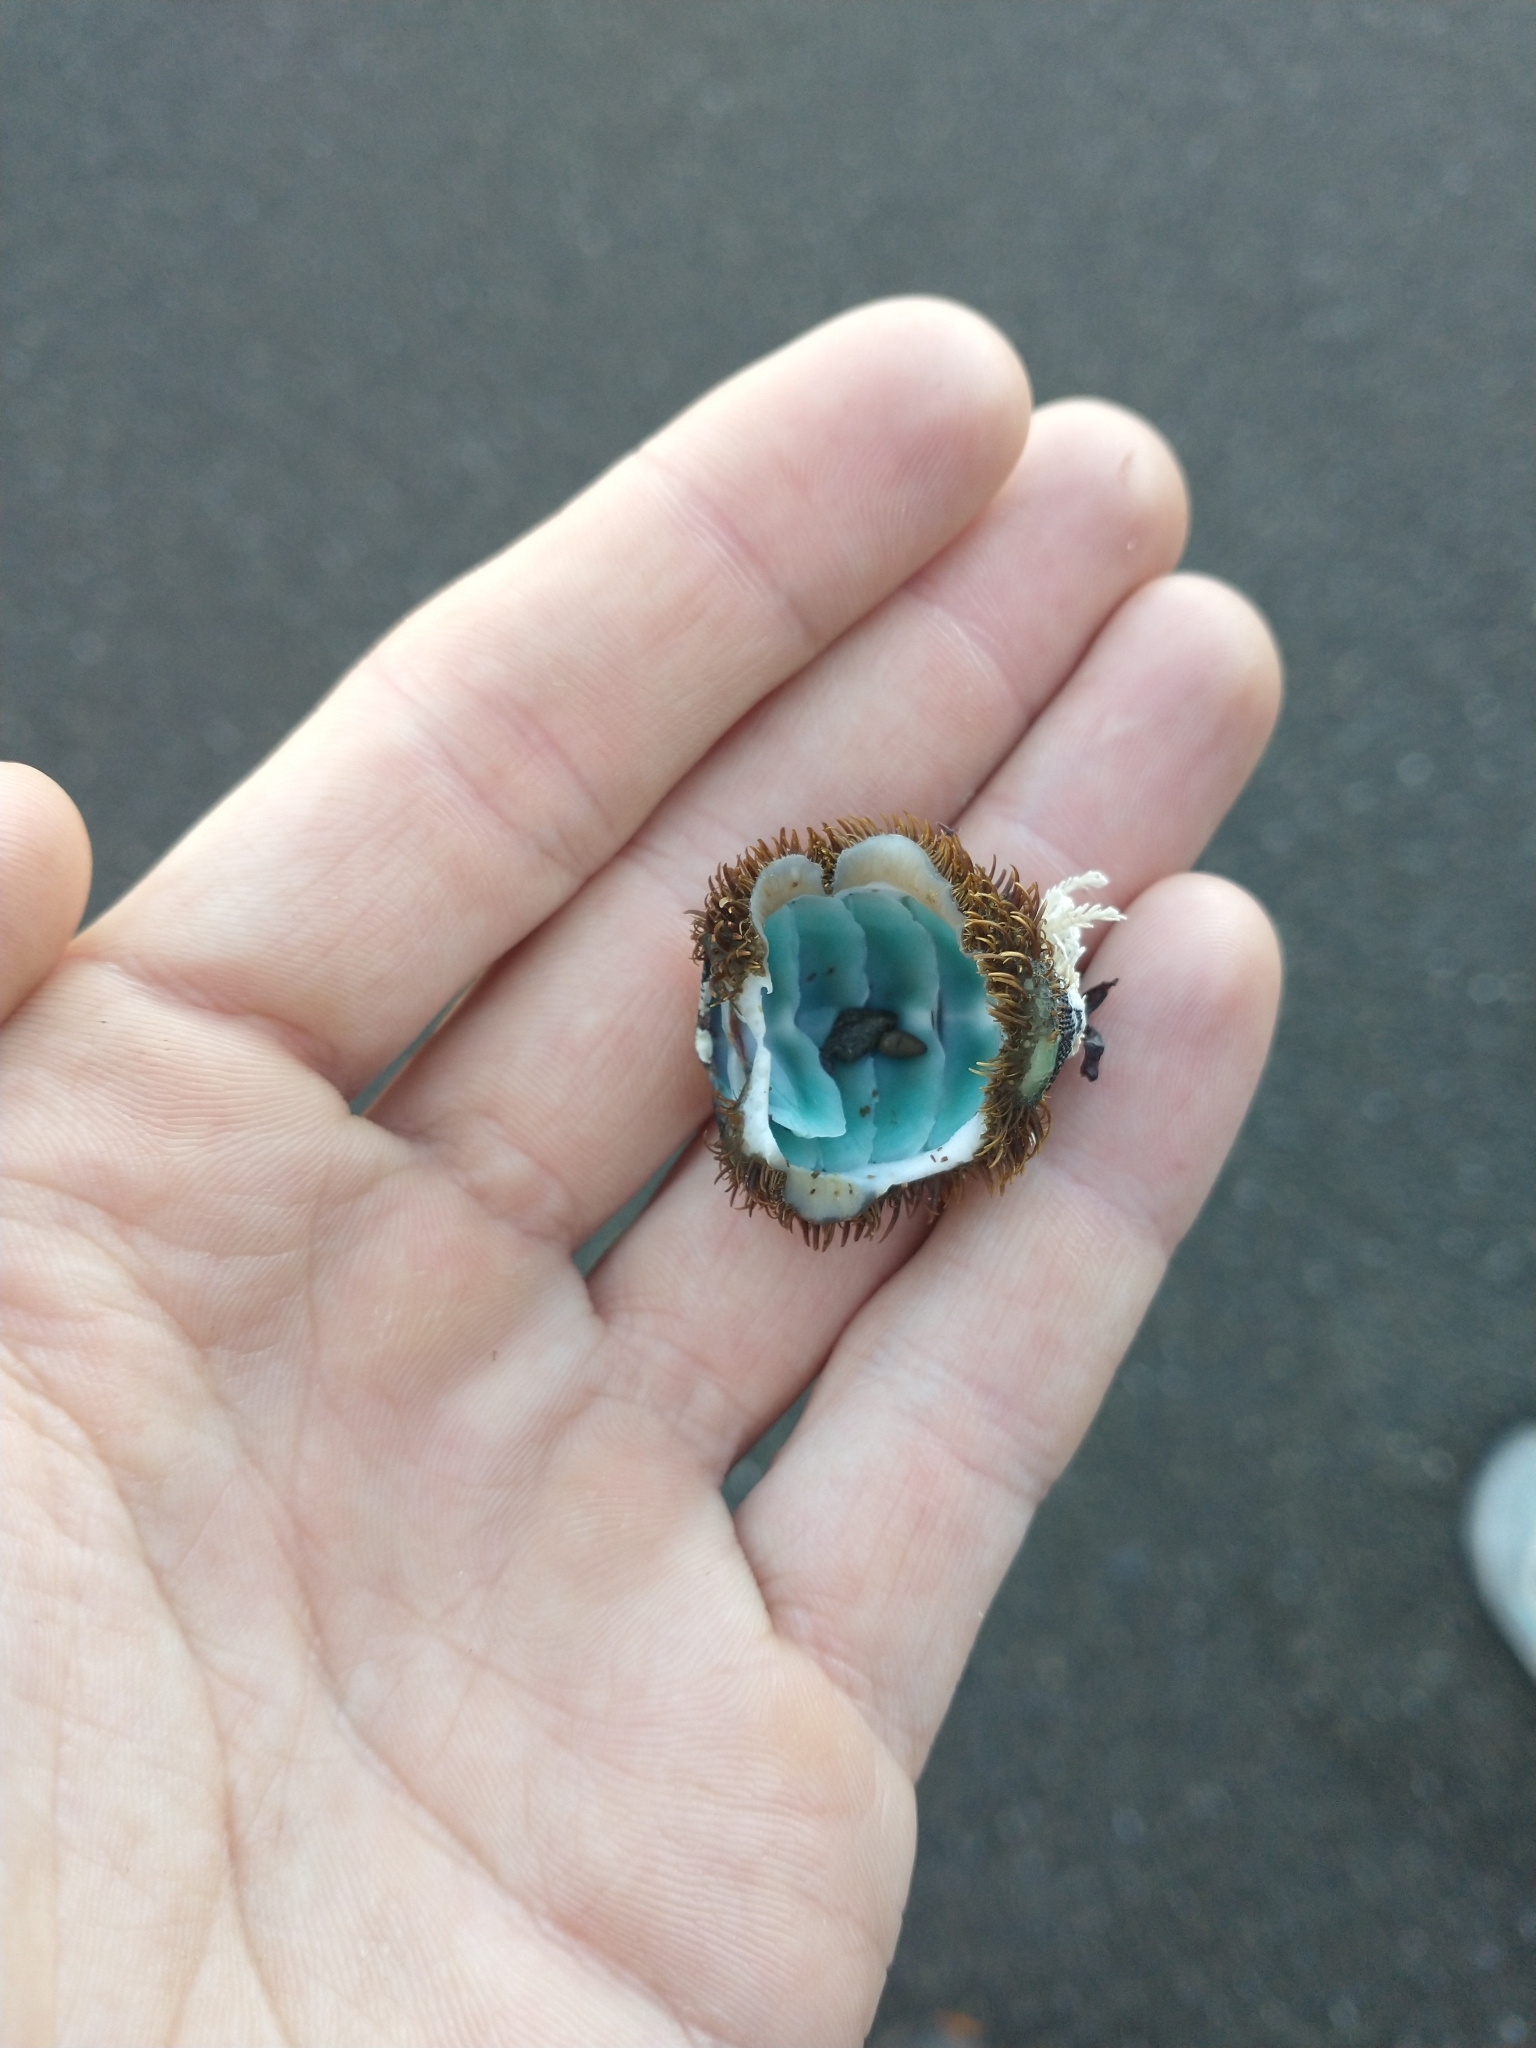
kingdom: Animalia
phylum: Mollusca
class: Polyplacophora
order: Chitonida
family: Mopaliidae
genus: Mopalia
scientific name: Mopalia muscosa
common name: Mossy chiton
